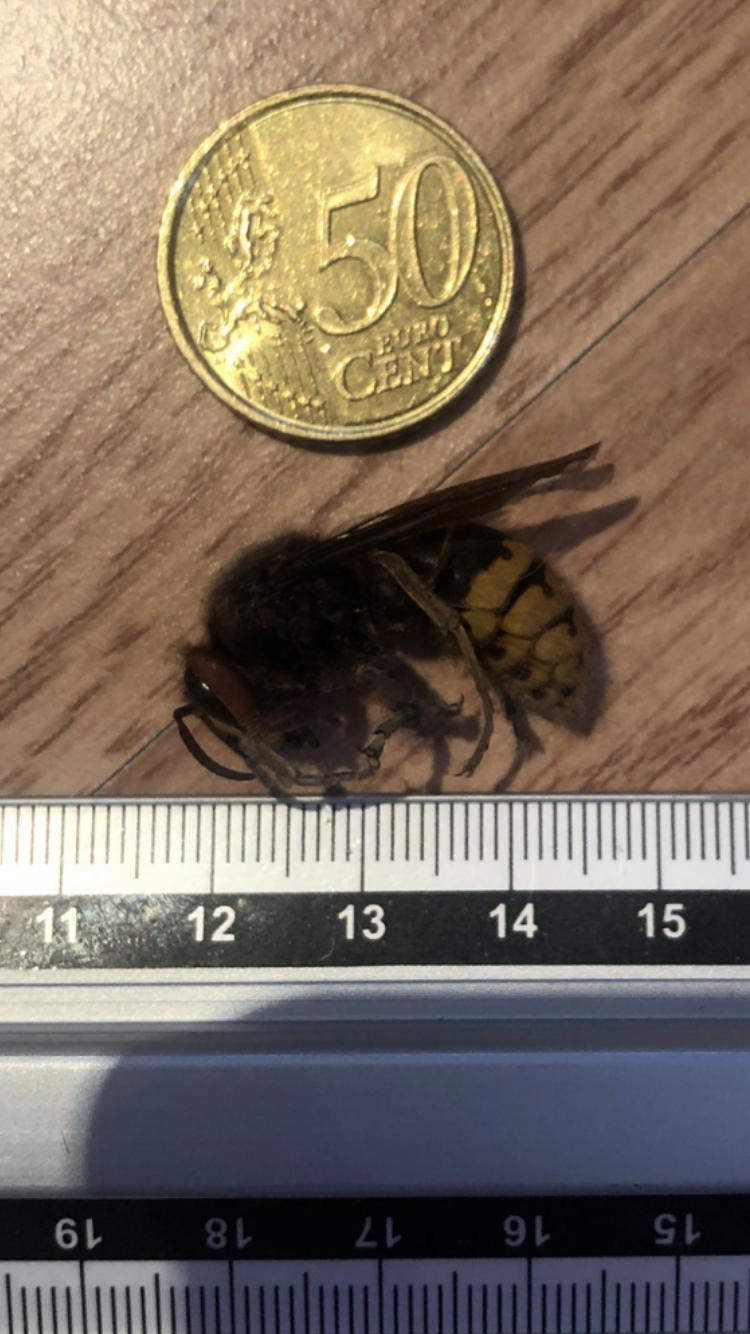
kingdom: Animalia
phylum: Arthropoda
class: Insecta
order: Hymenoptera
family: Vespidae
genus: Vespa
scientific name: Vespa crabro
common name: Hornet
